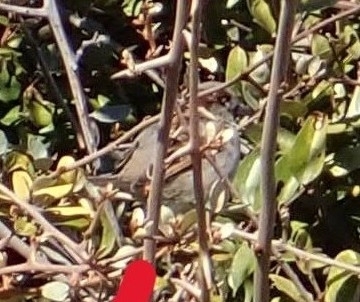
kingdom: Animalia
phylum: Chordata
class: Aves
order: Passeriformes
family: Passeridae
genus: Passer
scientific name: Passer domesticus
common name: House sparrow
